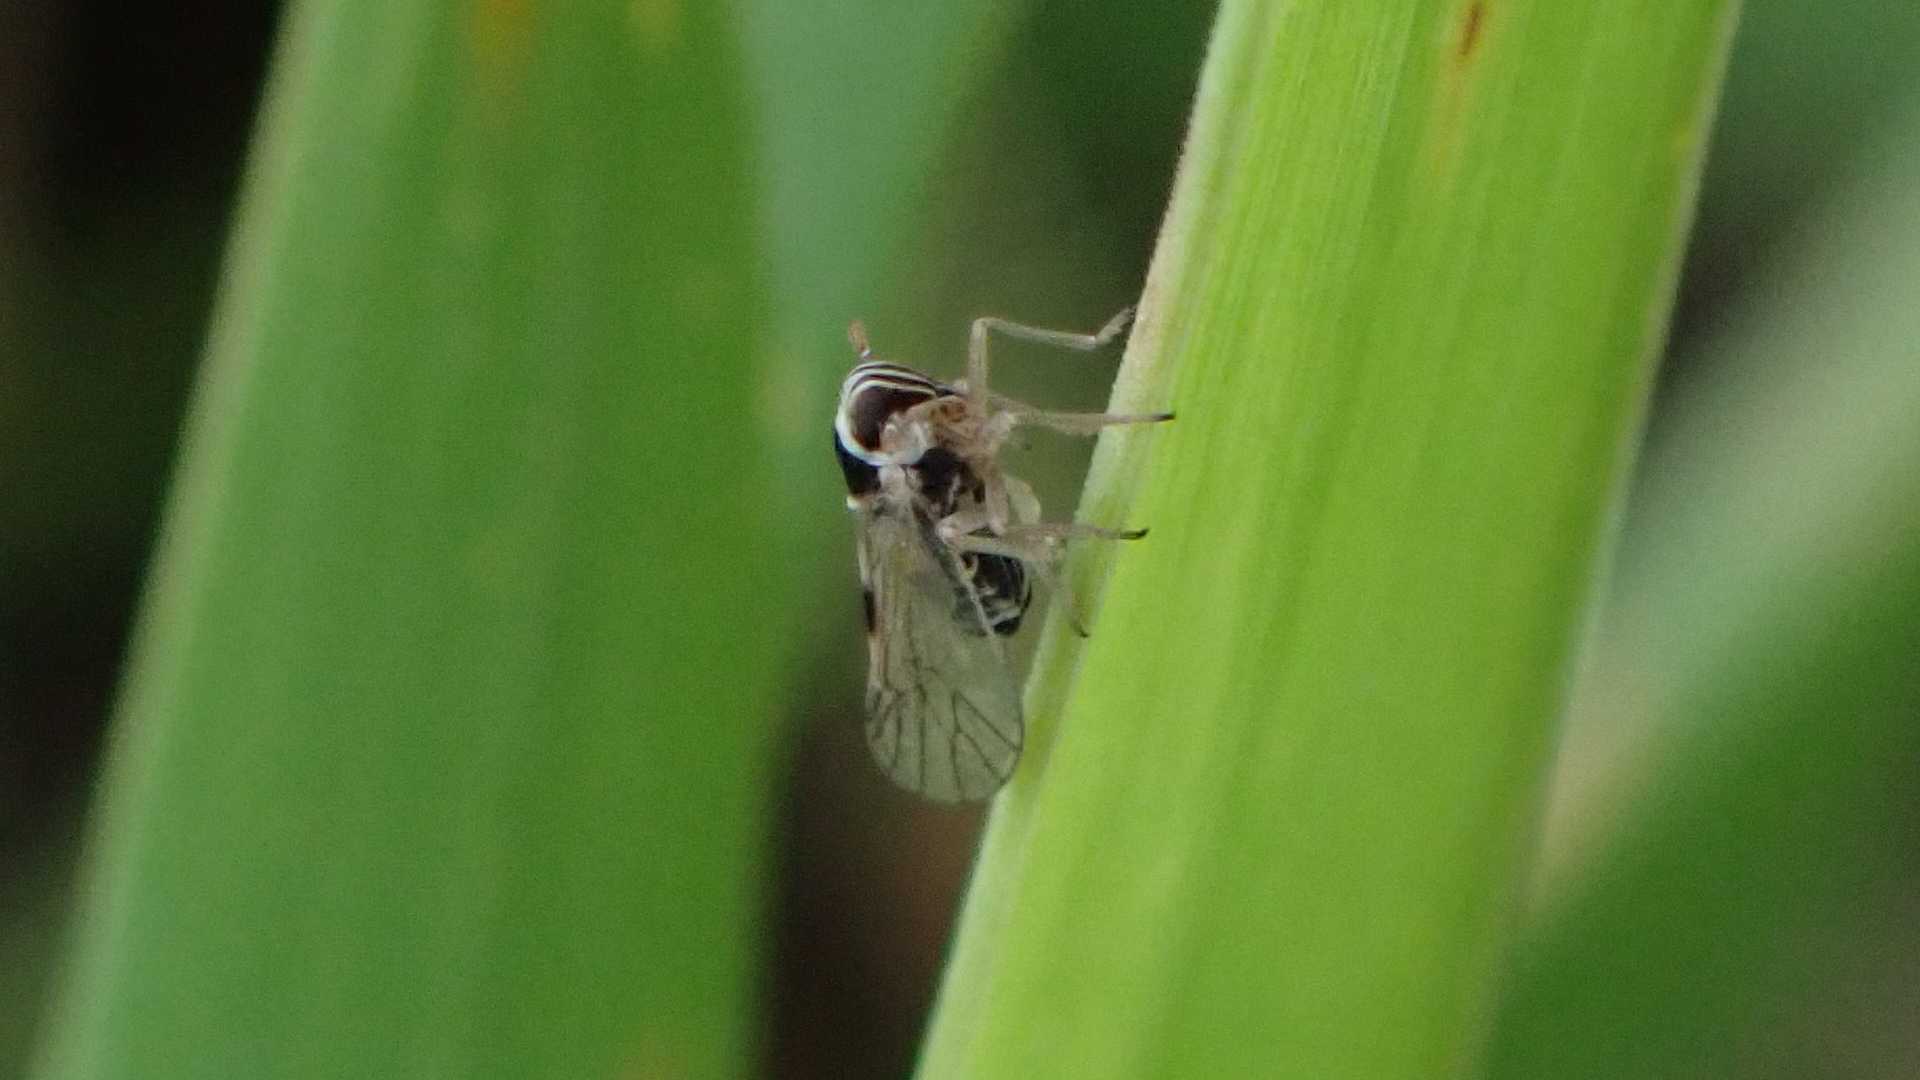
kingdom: Animalia
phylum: Arthropoda
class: Insecta
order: Hemiptera
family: Delphacidae
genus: Laodelphax
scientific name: Laodelphax striatellus
